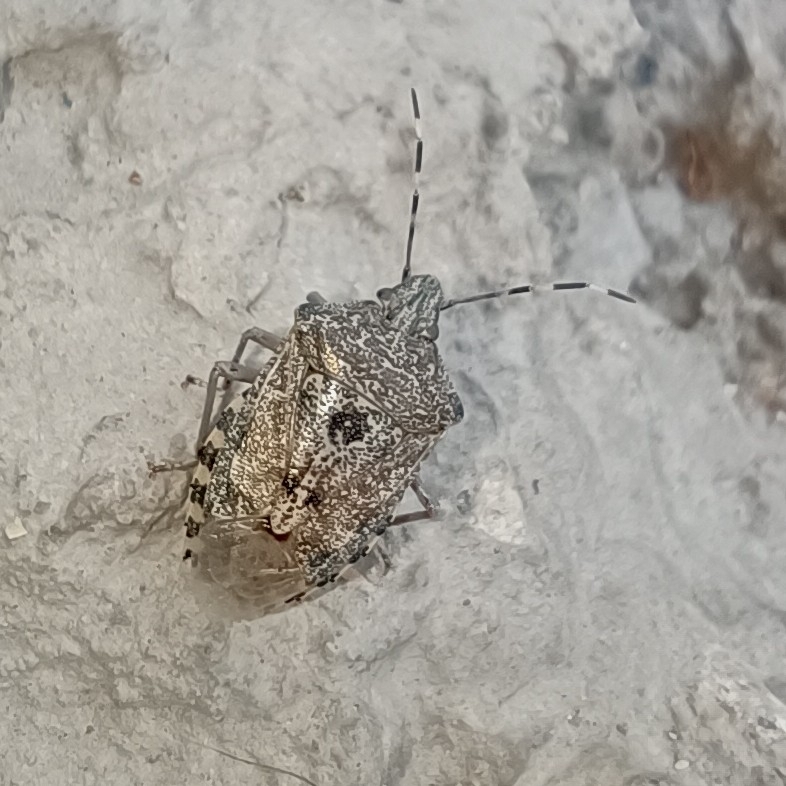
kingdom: Animalia
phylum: Arthropoda
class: Insecta
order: Hemiptera
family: Pentatomidae
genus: Rhaphigaster
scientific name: Rhaphigaster nebulosa
